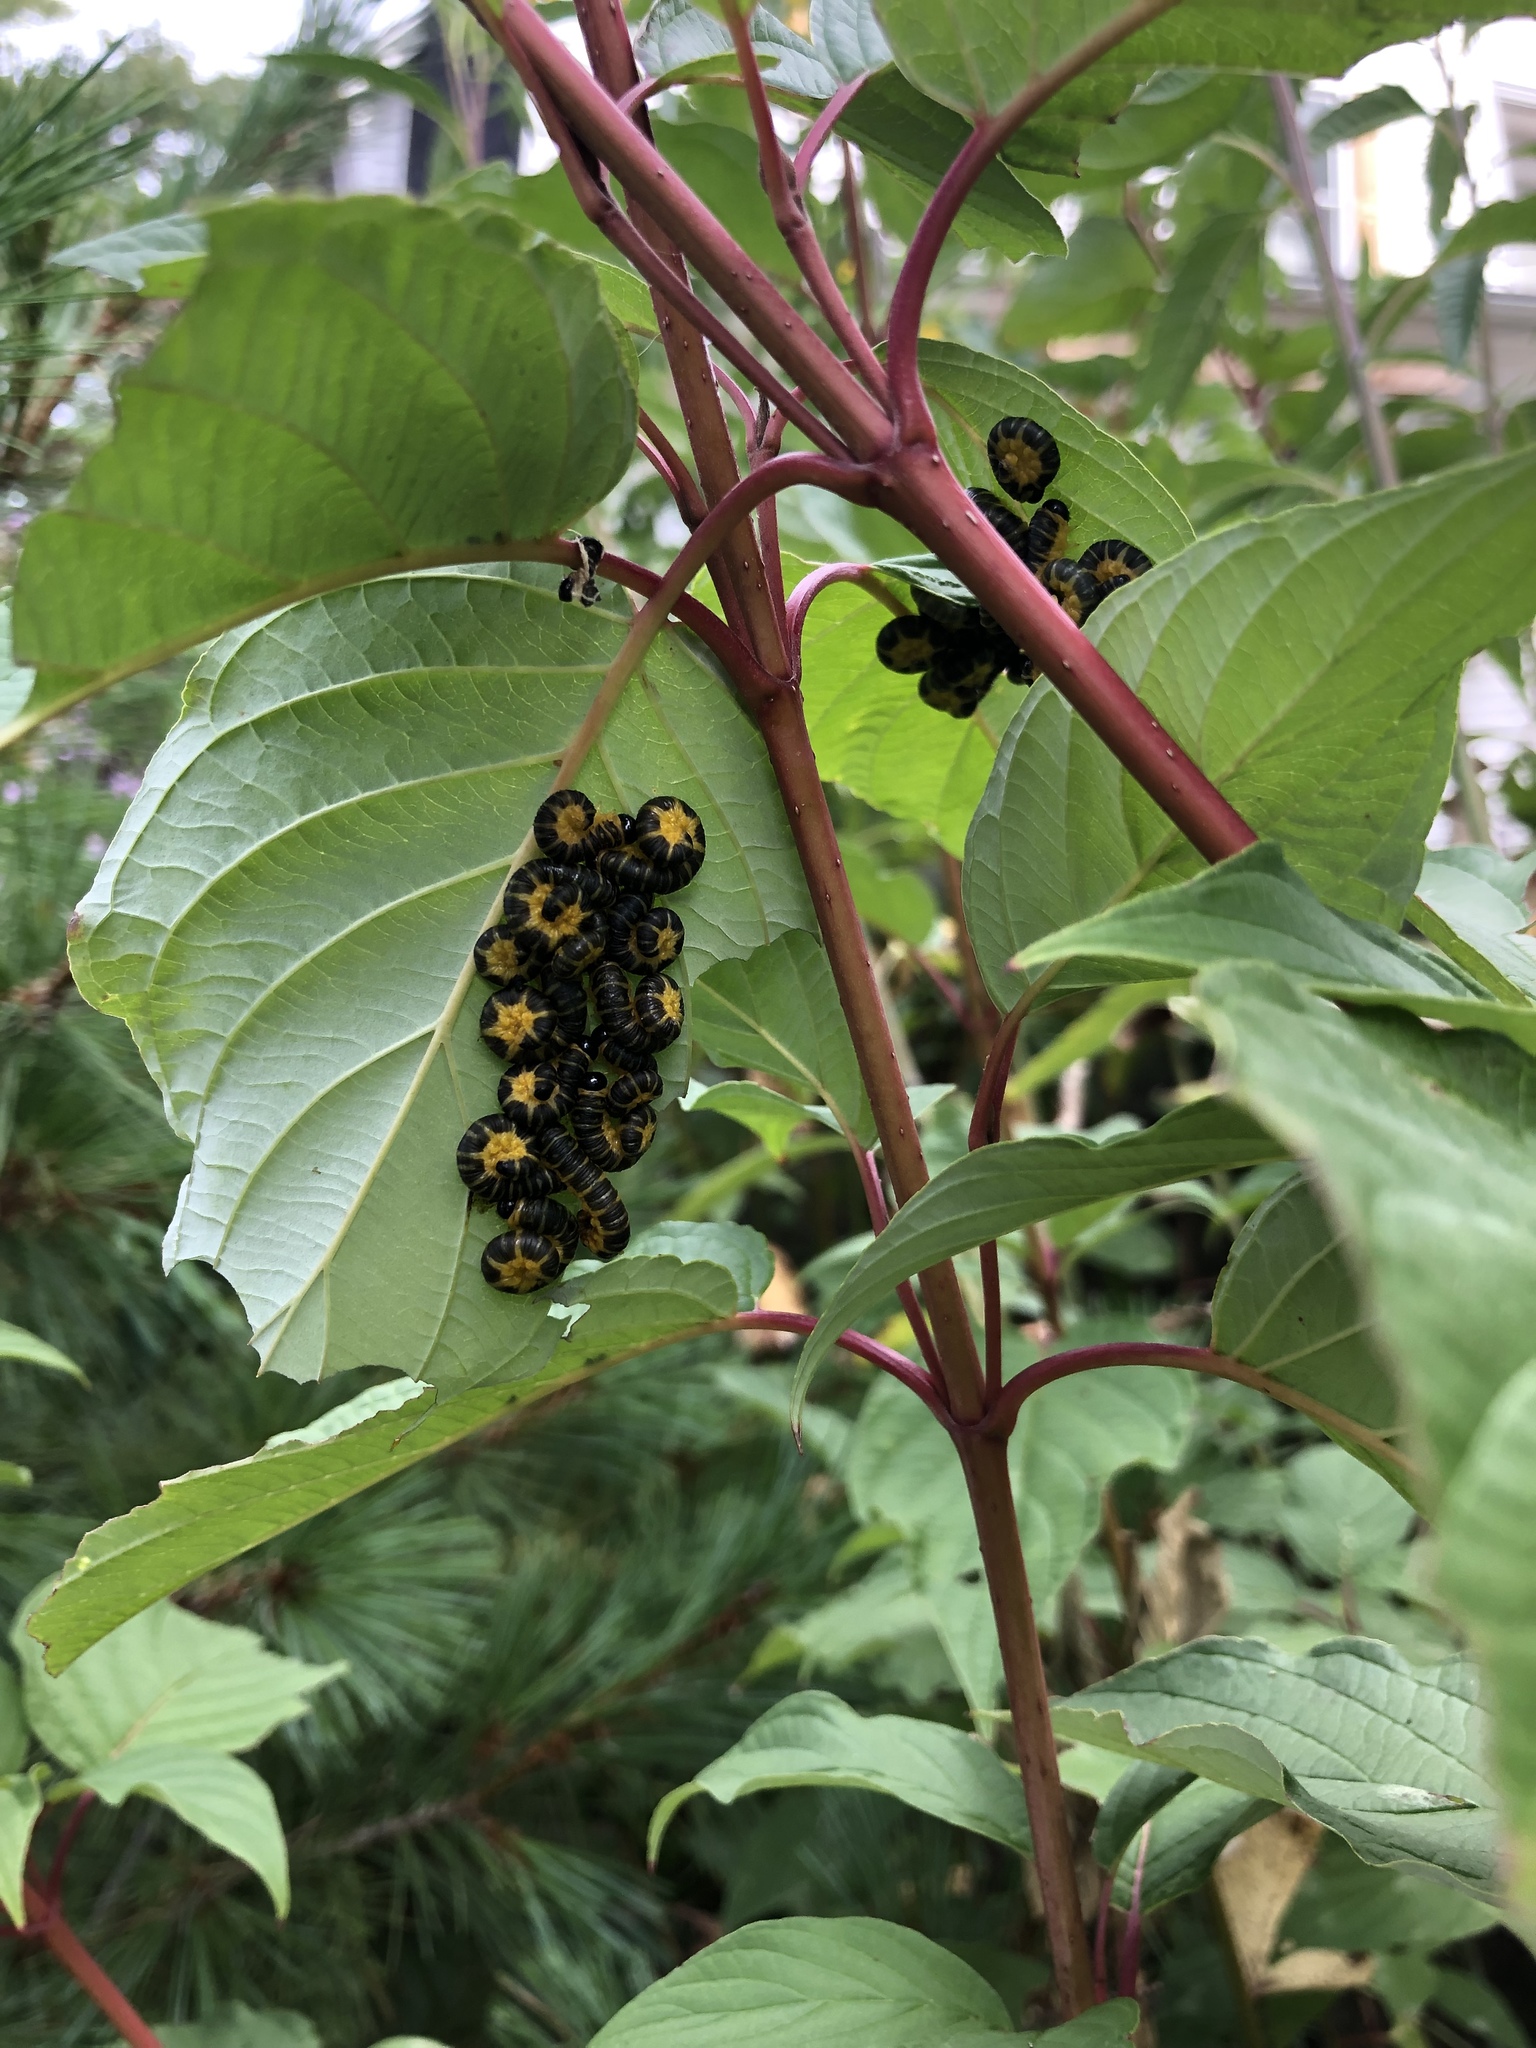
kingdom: Animalia
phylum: Arthropoda
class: Insecta
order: Hymenoptera
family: Tenthredinidae
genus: Macremphytus
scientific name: Macremphytus
